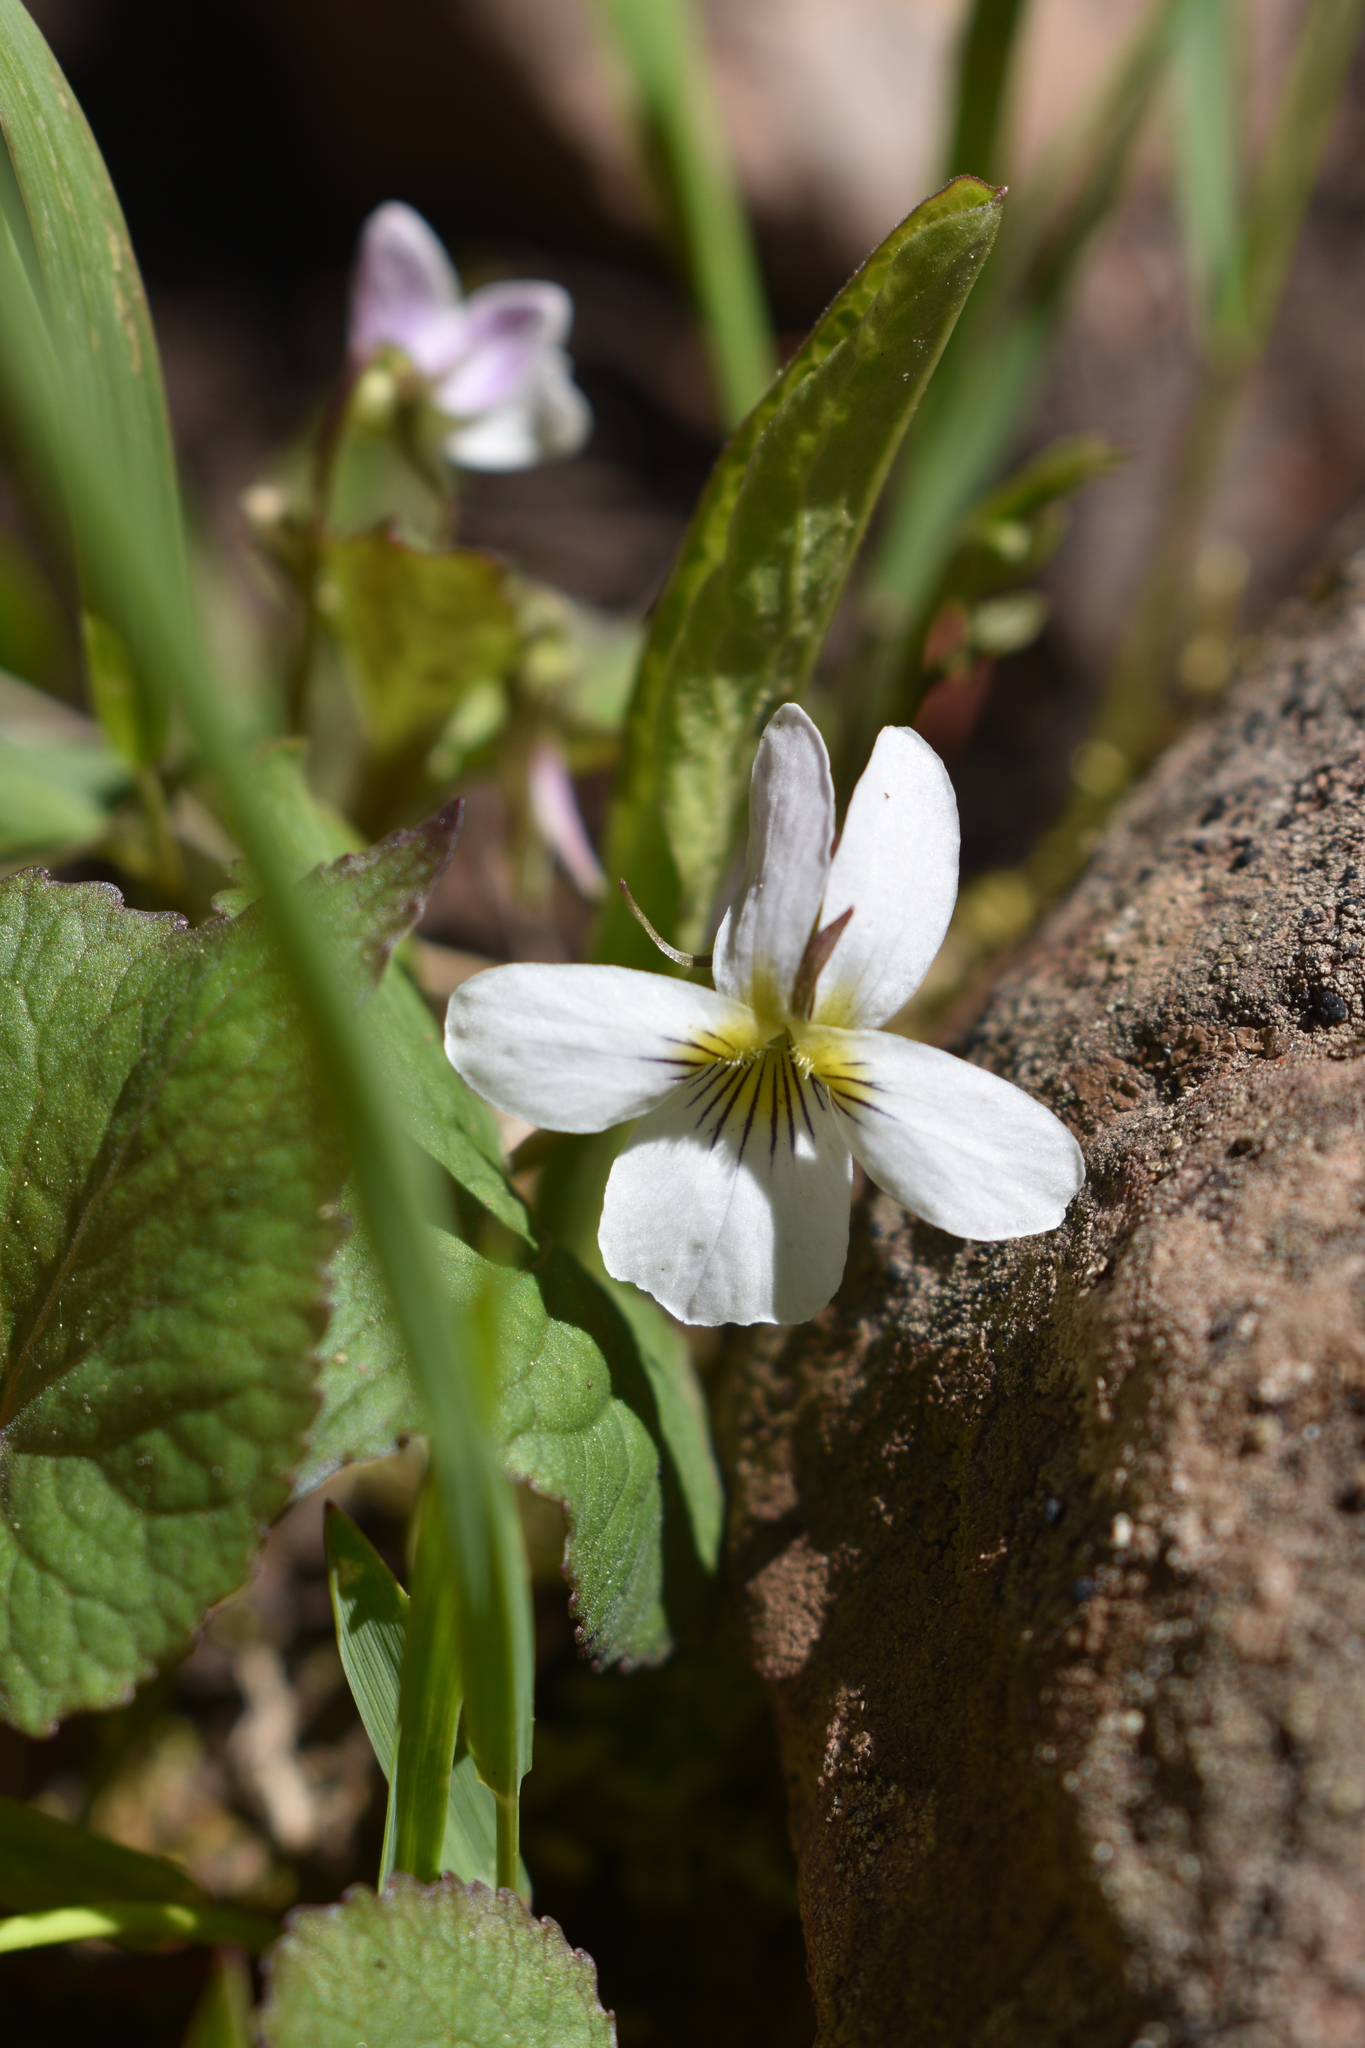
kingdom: Plantae
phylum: Tracheophyta
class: Magnoliopsida
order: Malpighiales
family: Violaceae
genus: Viola
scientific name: Viola canadensis
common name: Canada violet
